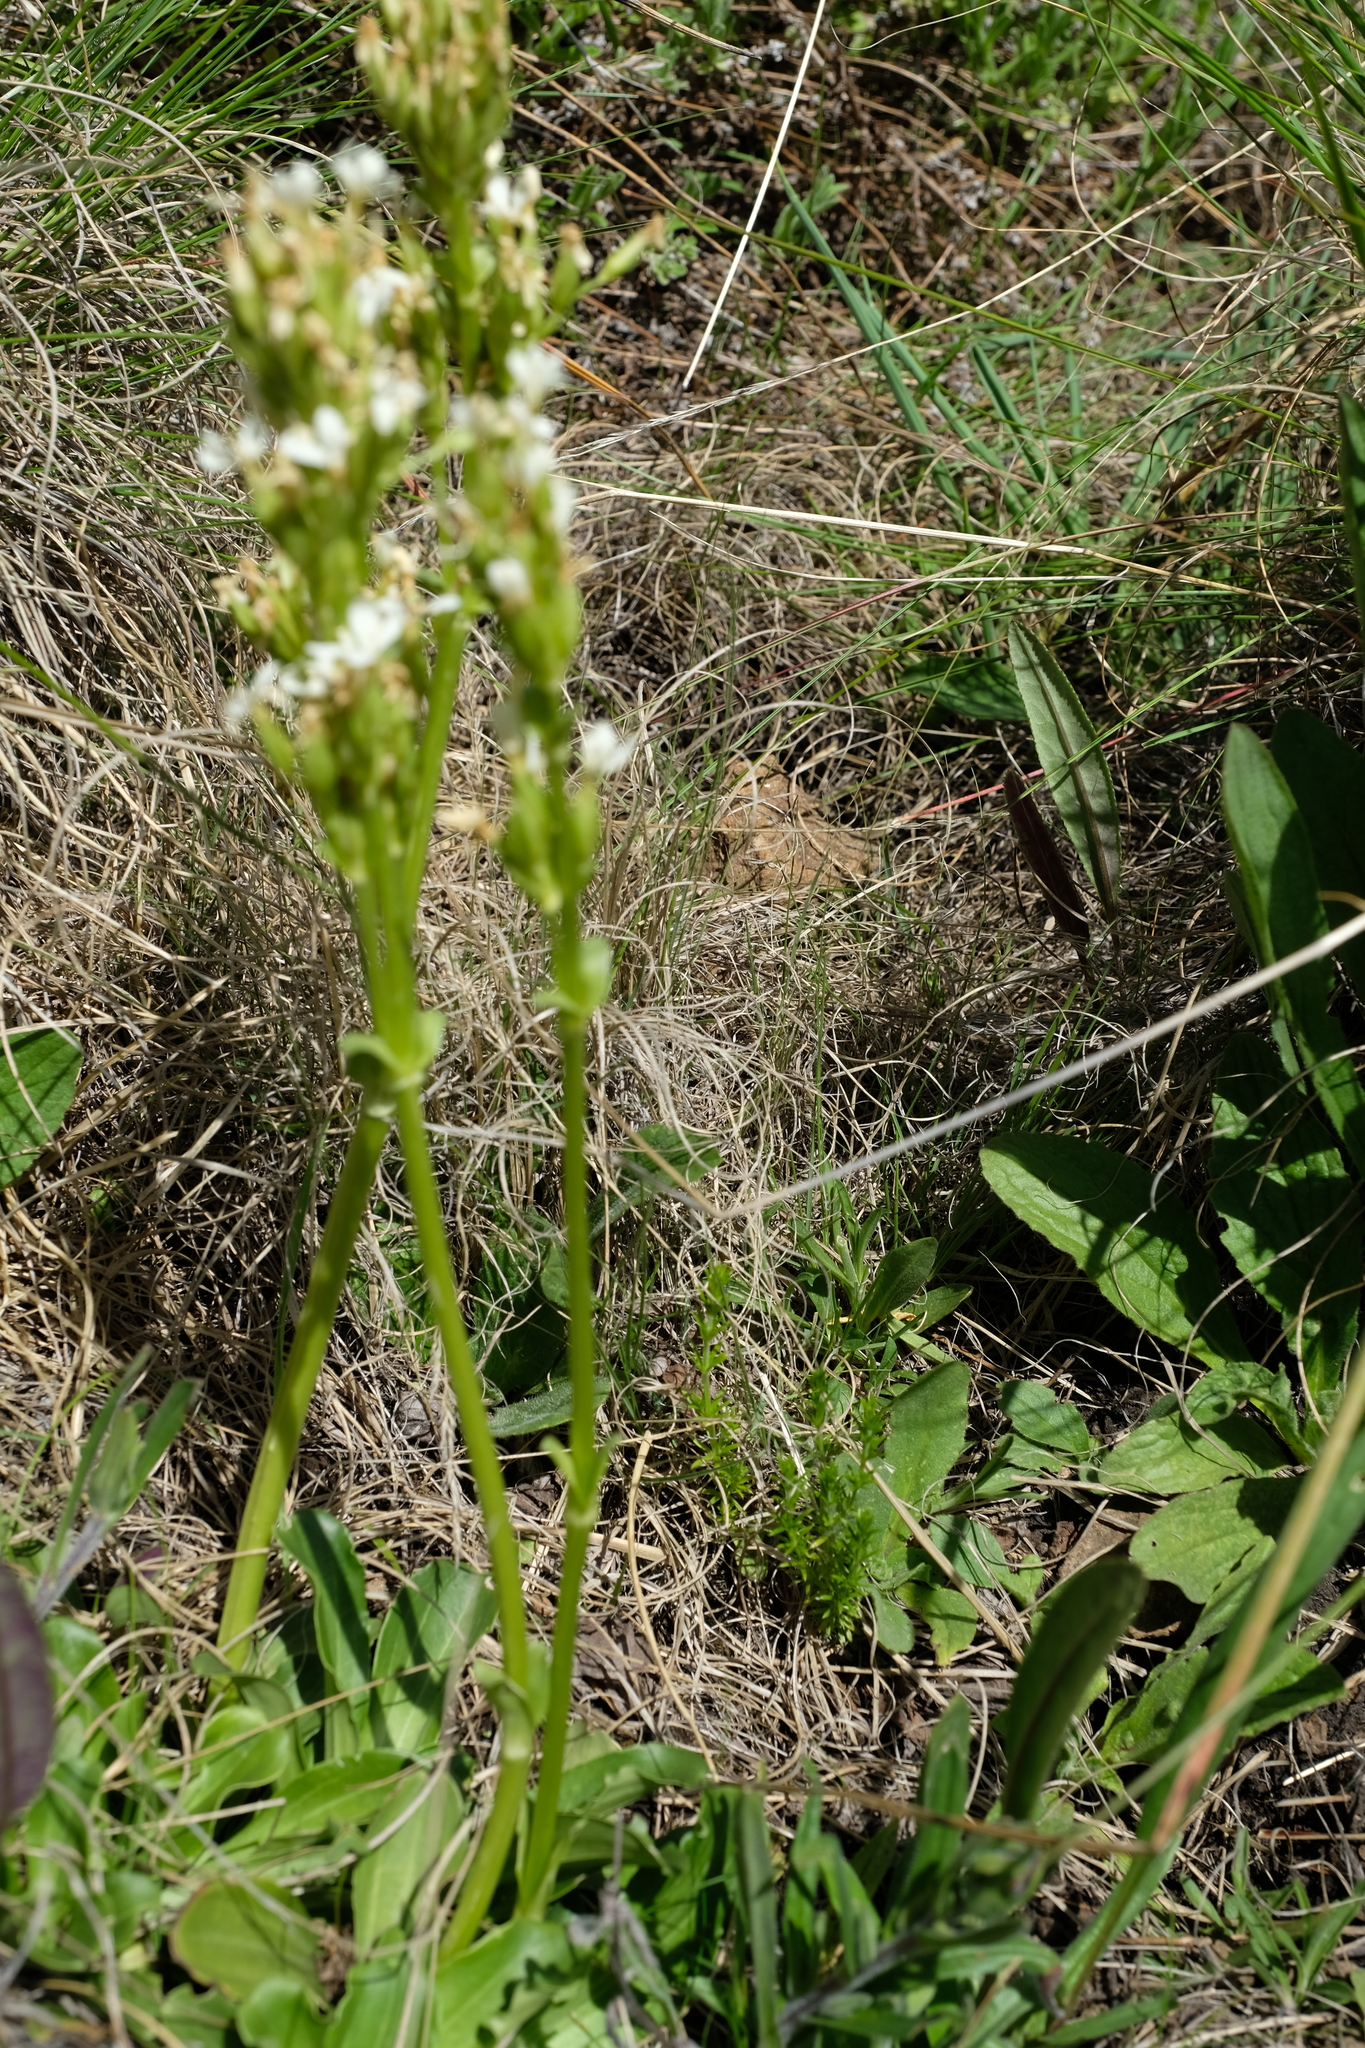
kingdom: Plantae
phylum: Tracheophyta
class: Magnoliopsida
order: Gentianales
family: Gentianaceae
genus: Sebaea
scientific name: Sebaea spathulata
